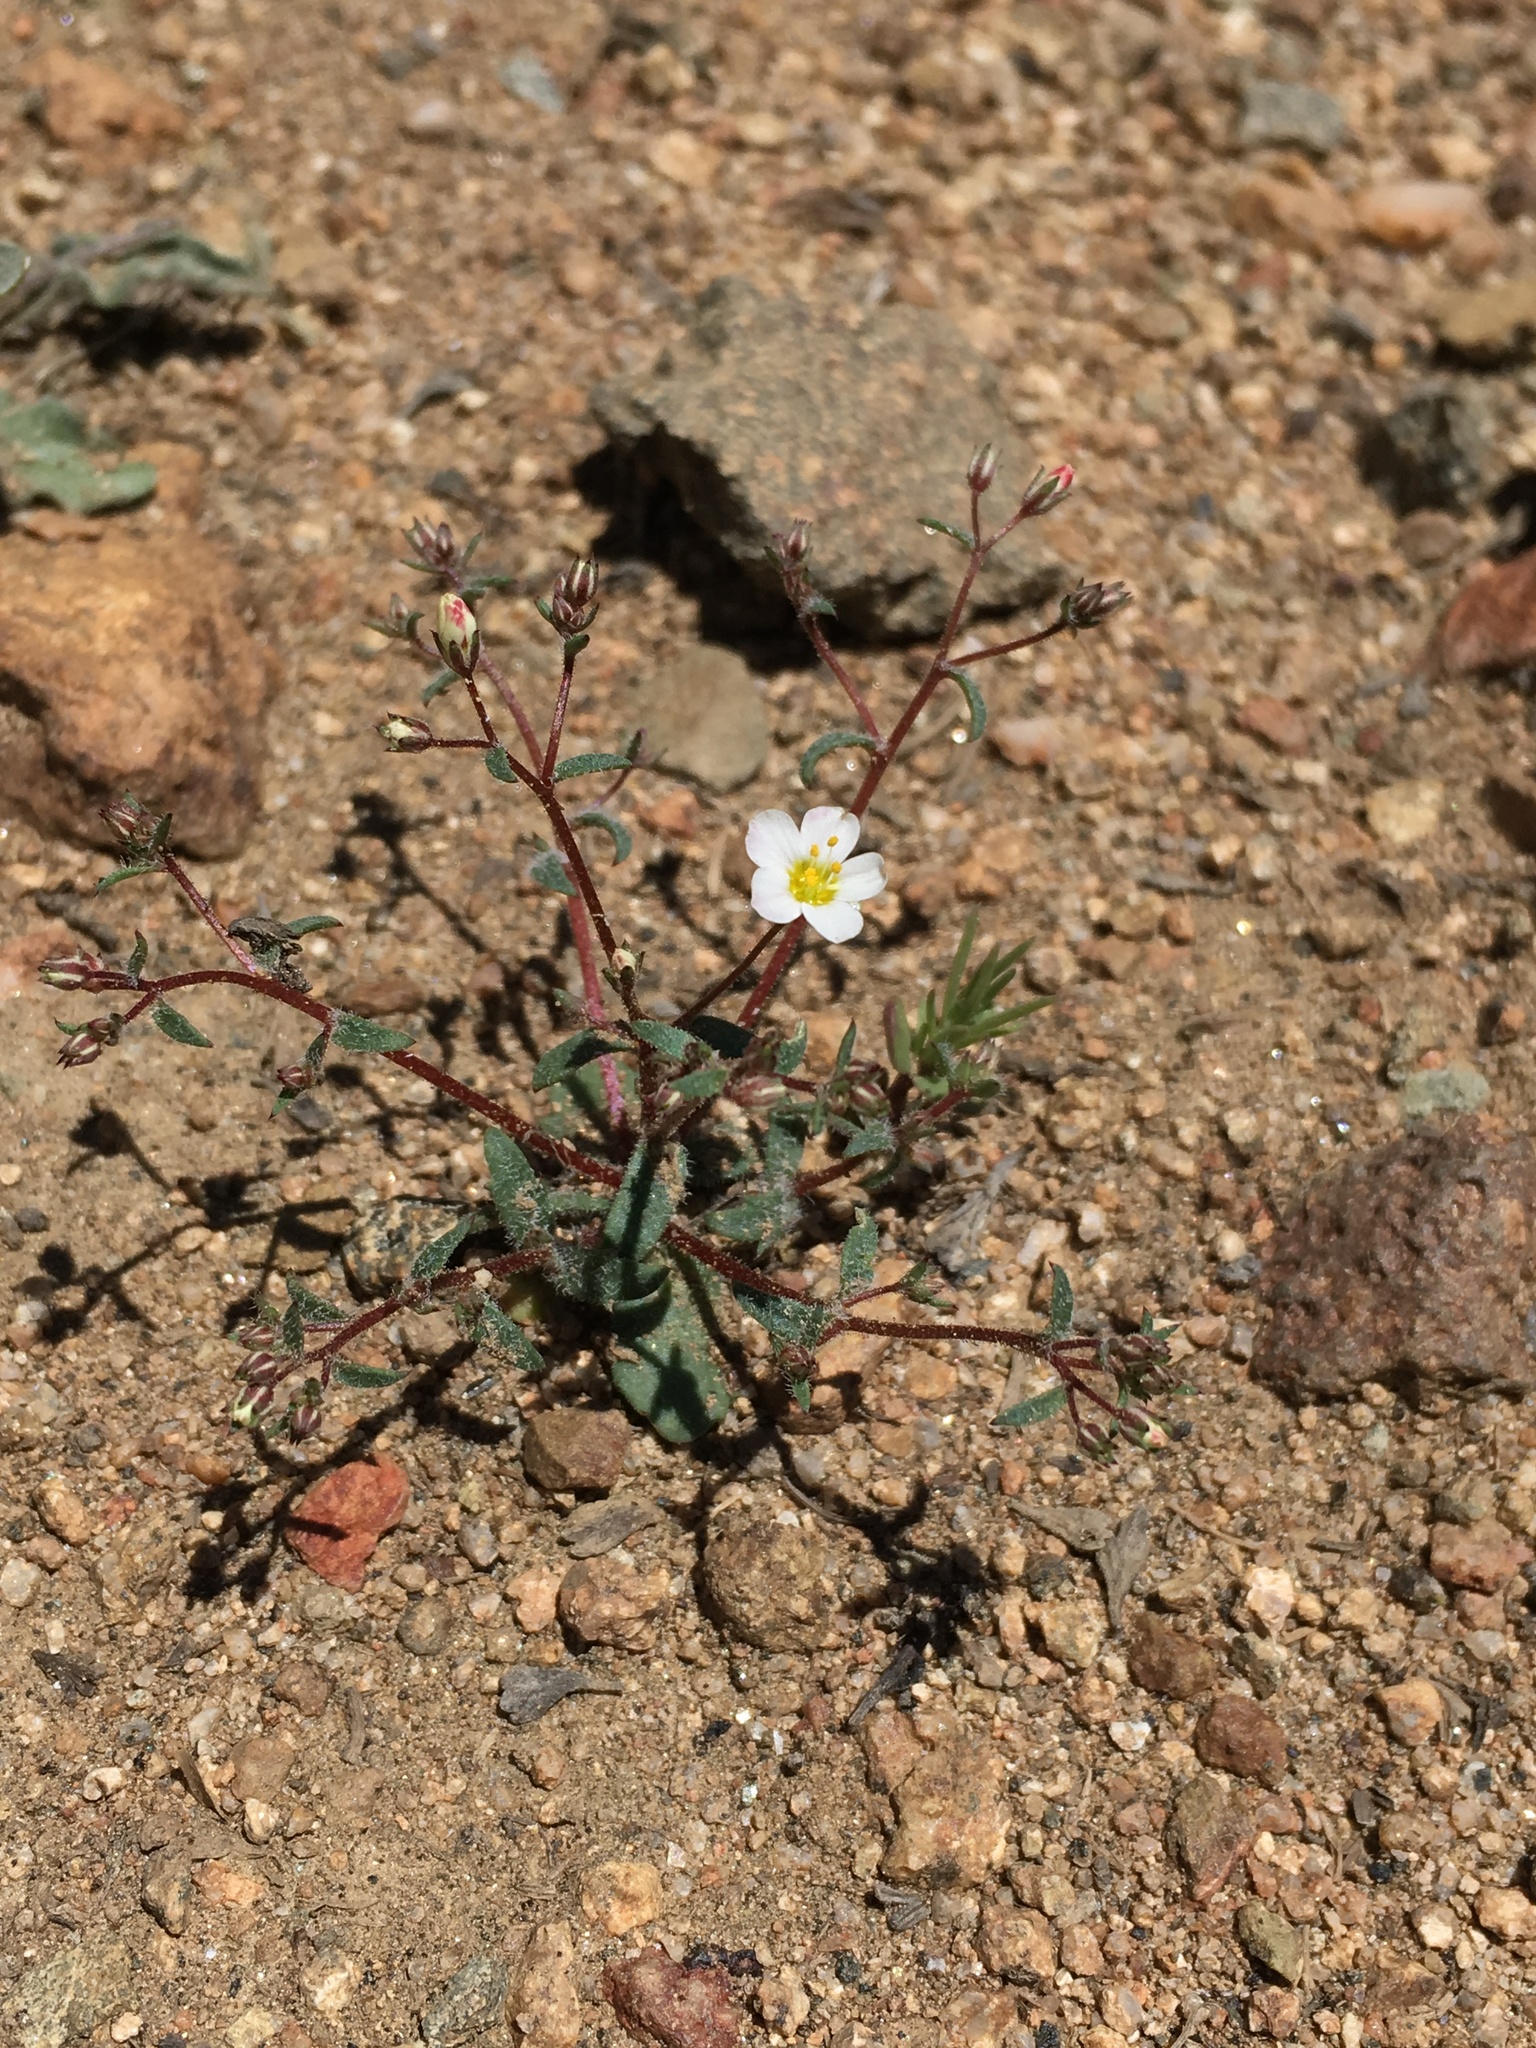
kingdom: Plantae
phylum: Tracheophyta
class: Magnoliopsida
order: Ericales
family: Polemoniaceae
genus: Linanthus
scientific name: Linanthus inyoensis
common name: Inyo gilia
